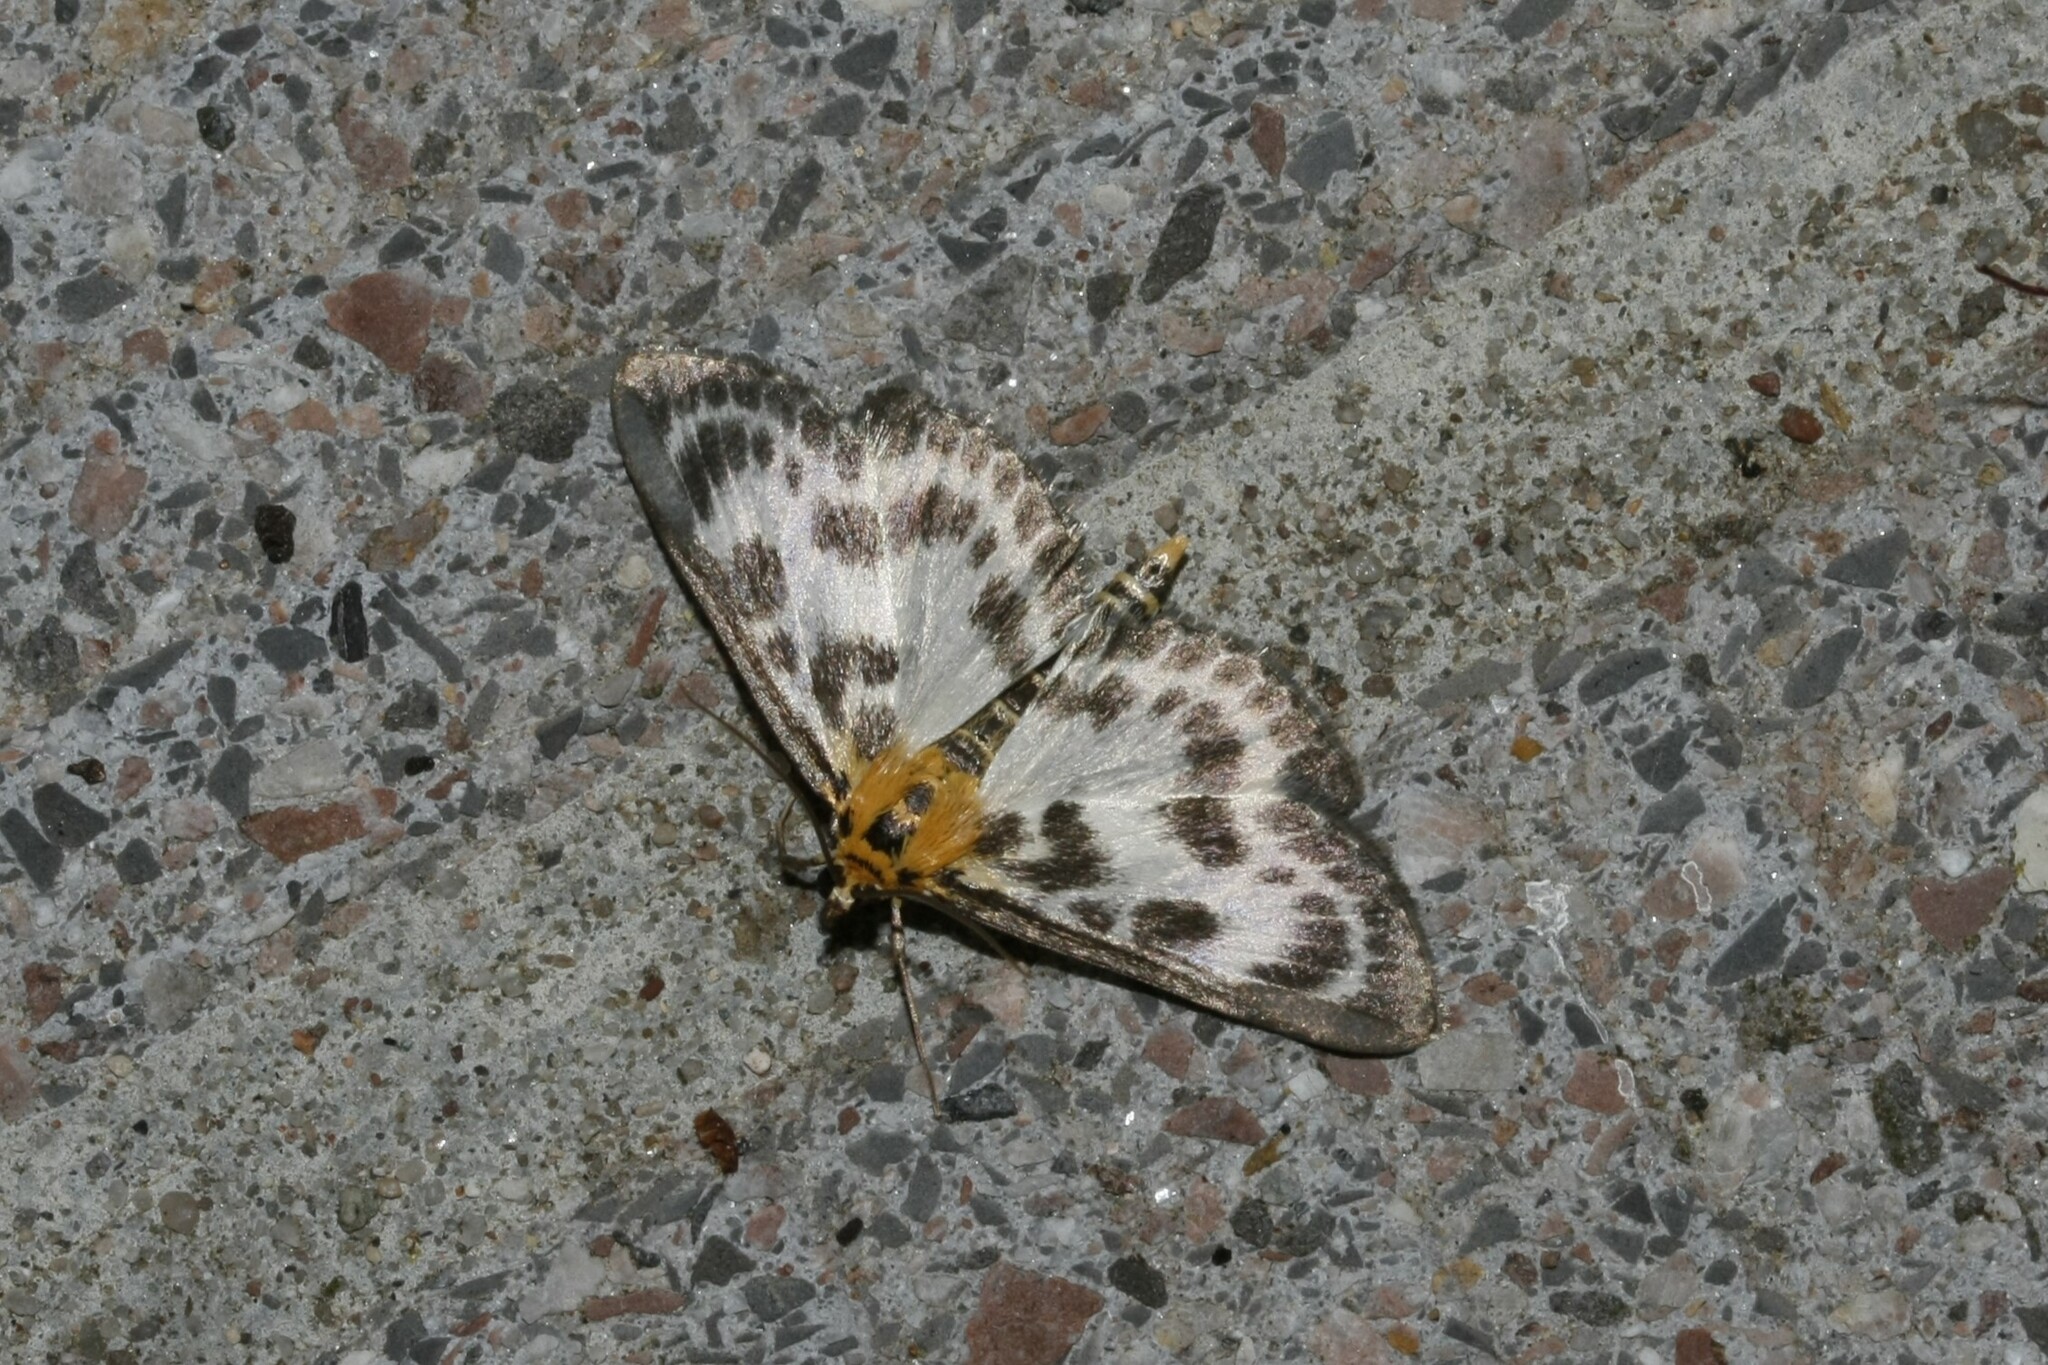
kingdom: Animalia
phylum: Arthropoda
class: Insecta
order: Lepidoptera
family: Crambidae
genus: Anania
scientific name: Anania hortulata
